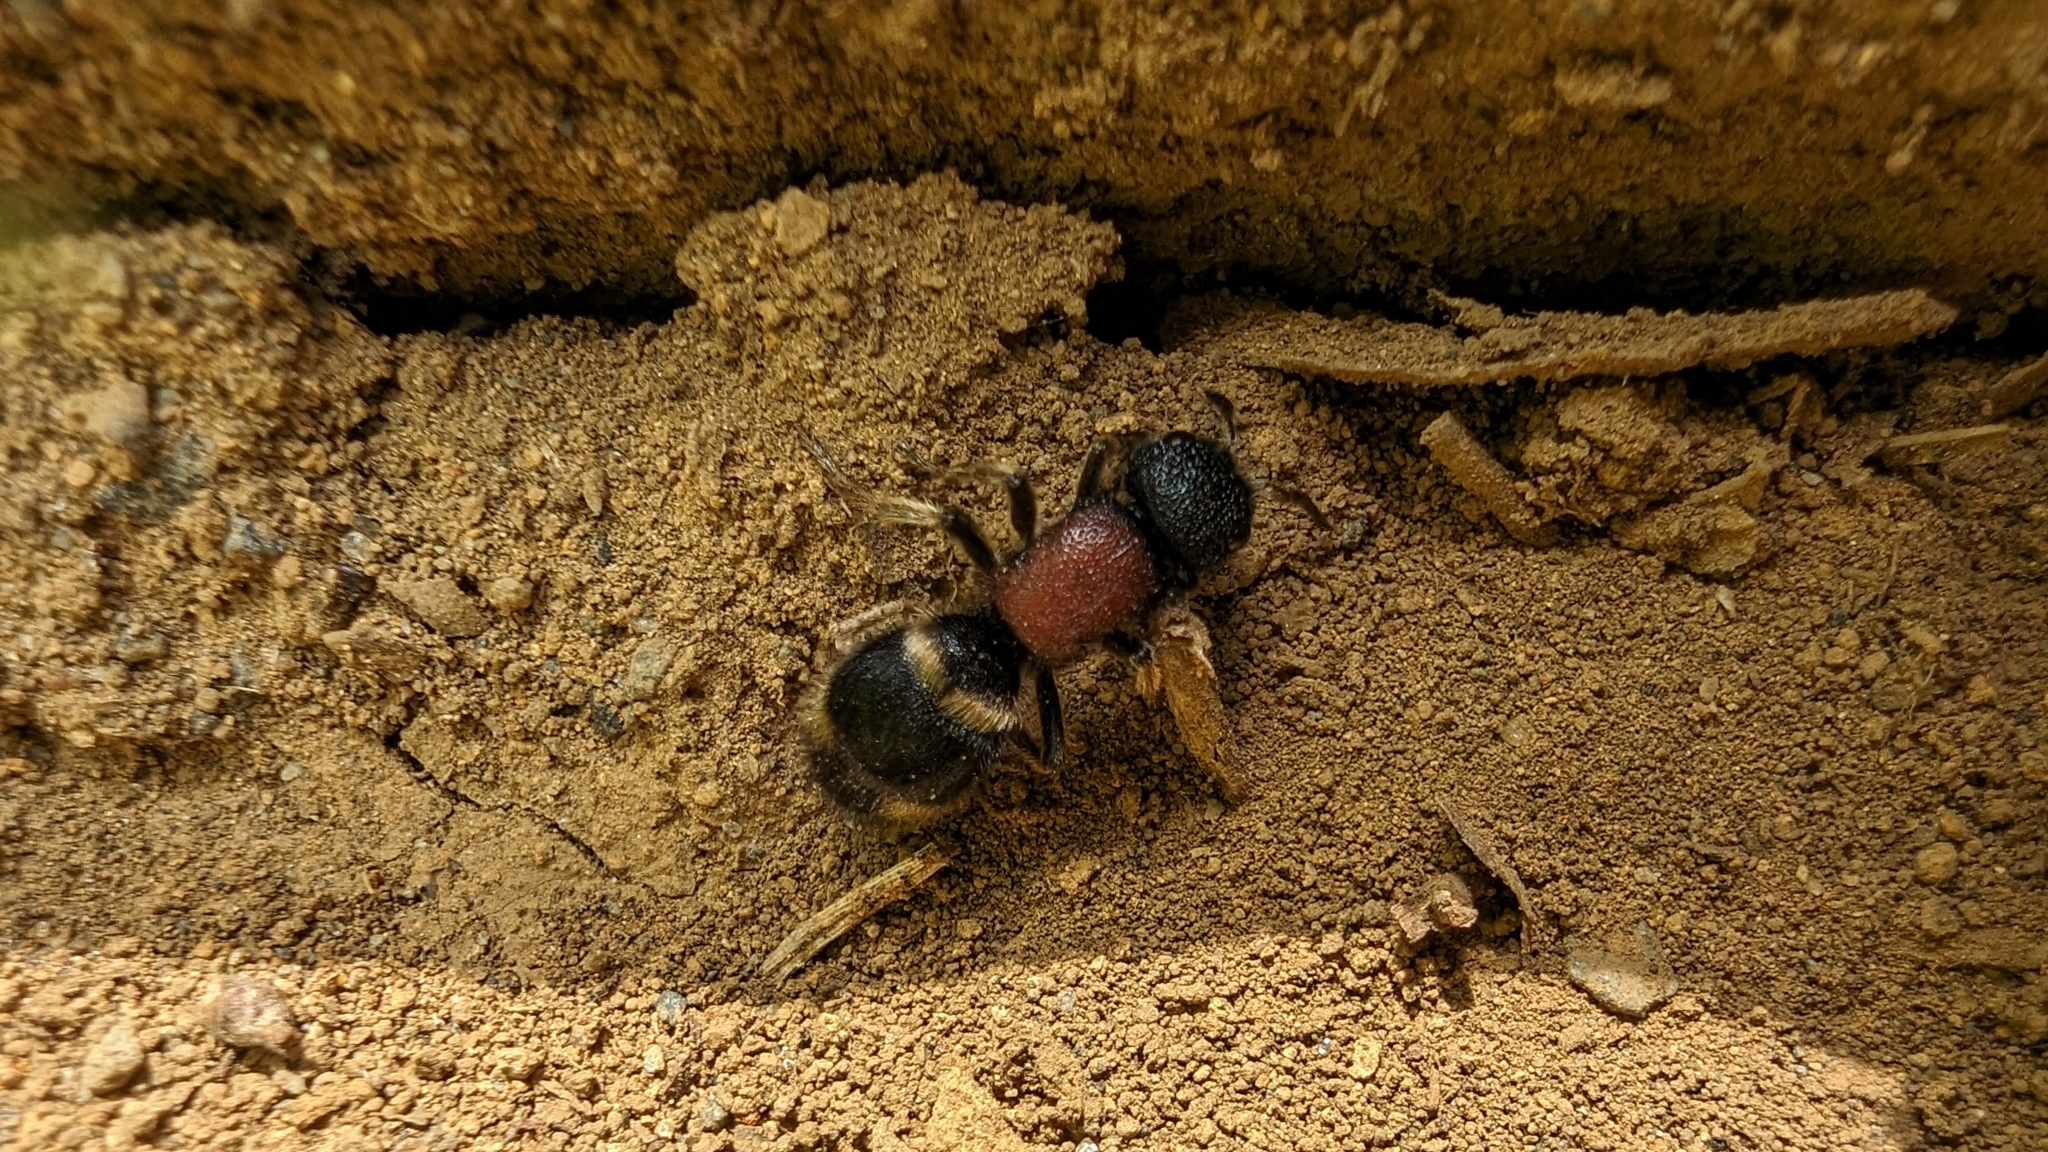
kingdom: Animalia
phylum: Arthropoda
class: Insecta
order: Hymenoptera
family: Mutillidae
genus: Mutilla
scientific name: Mutilla mikado
